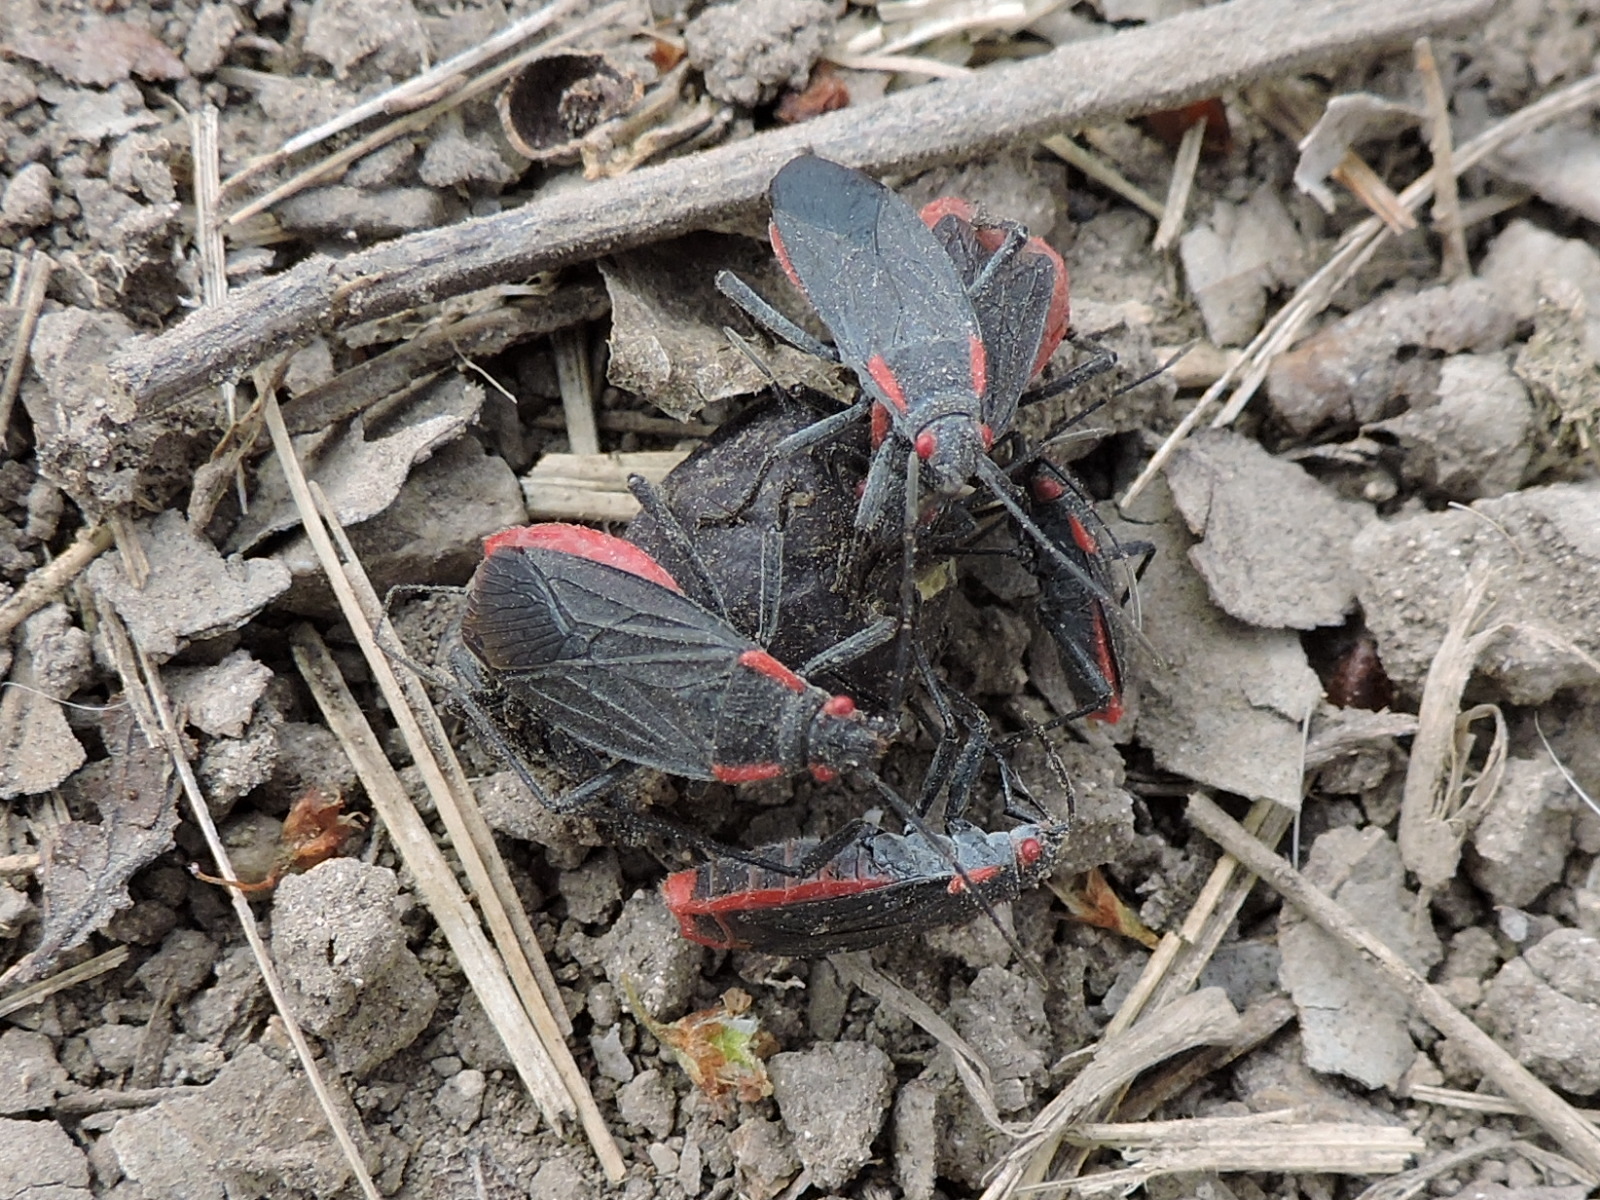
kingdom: Animalia
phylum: Arthropoda
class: Insecta
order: Hemiptera
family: Rhopalidae
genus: Jadera
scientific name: Jadera haematoloma
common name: Red-shouldered bug
